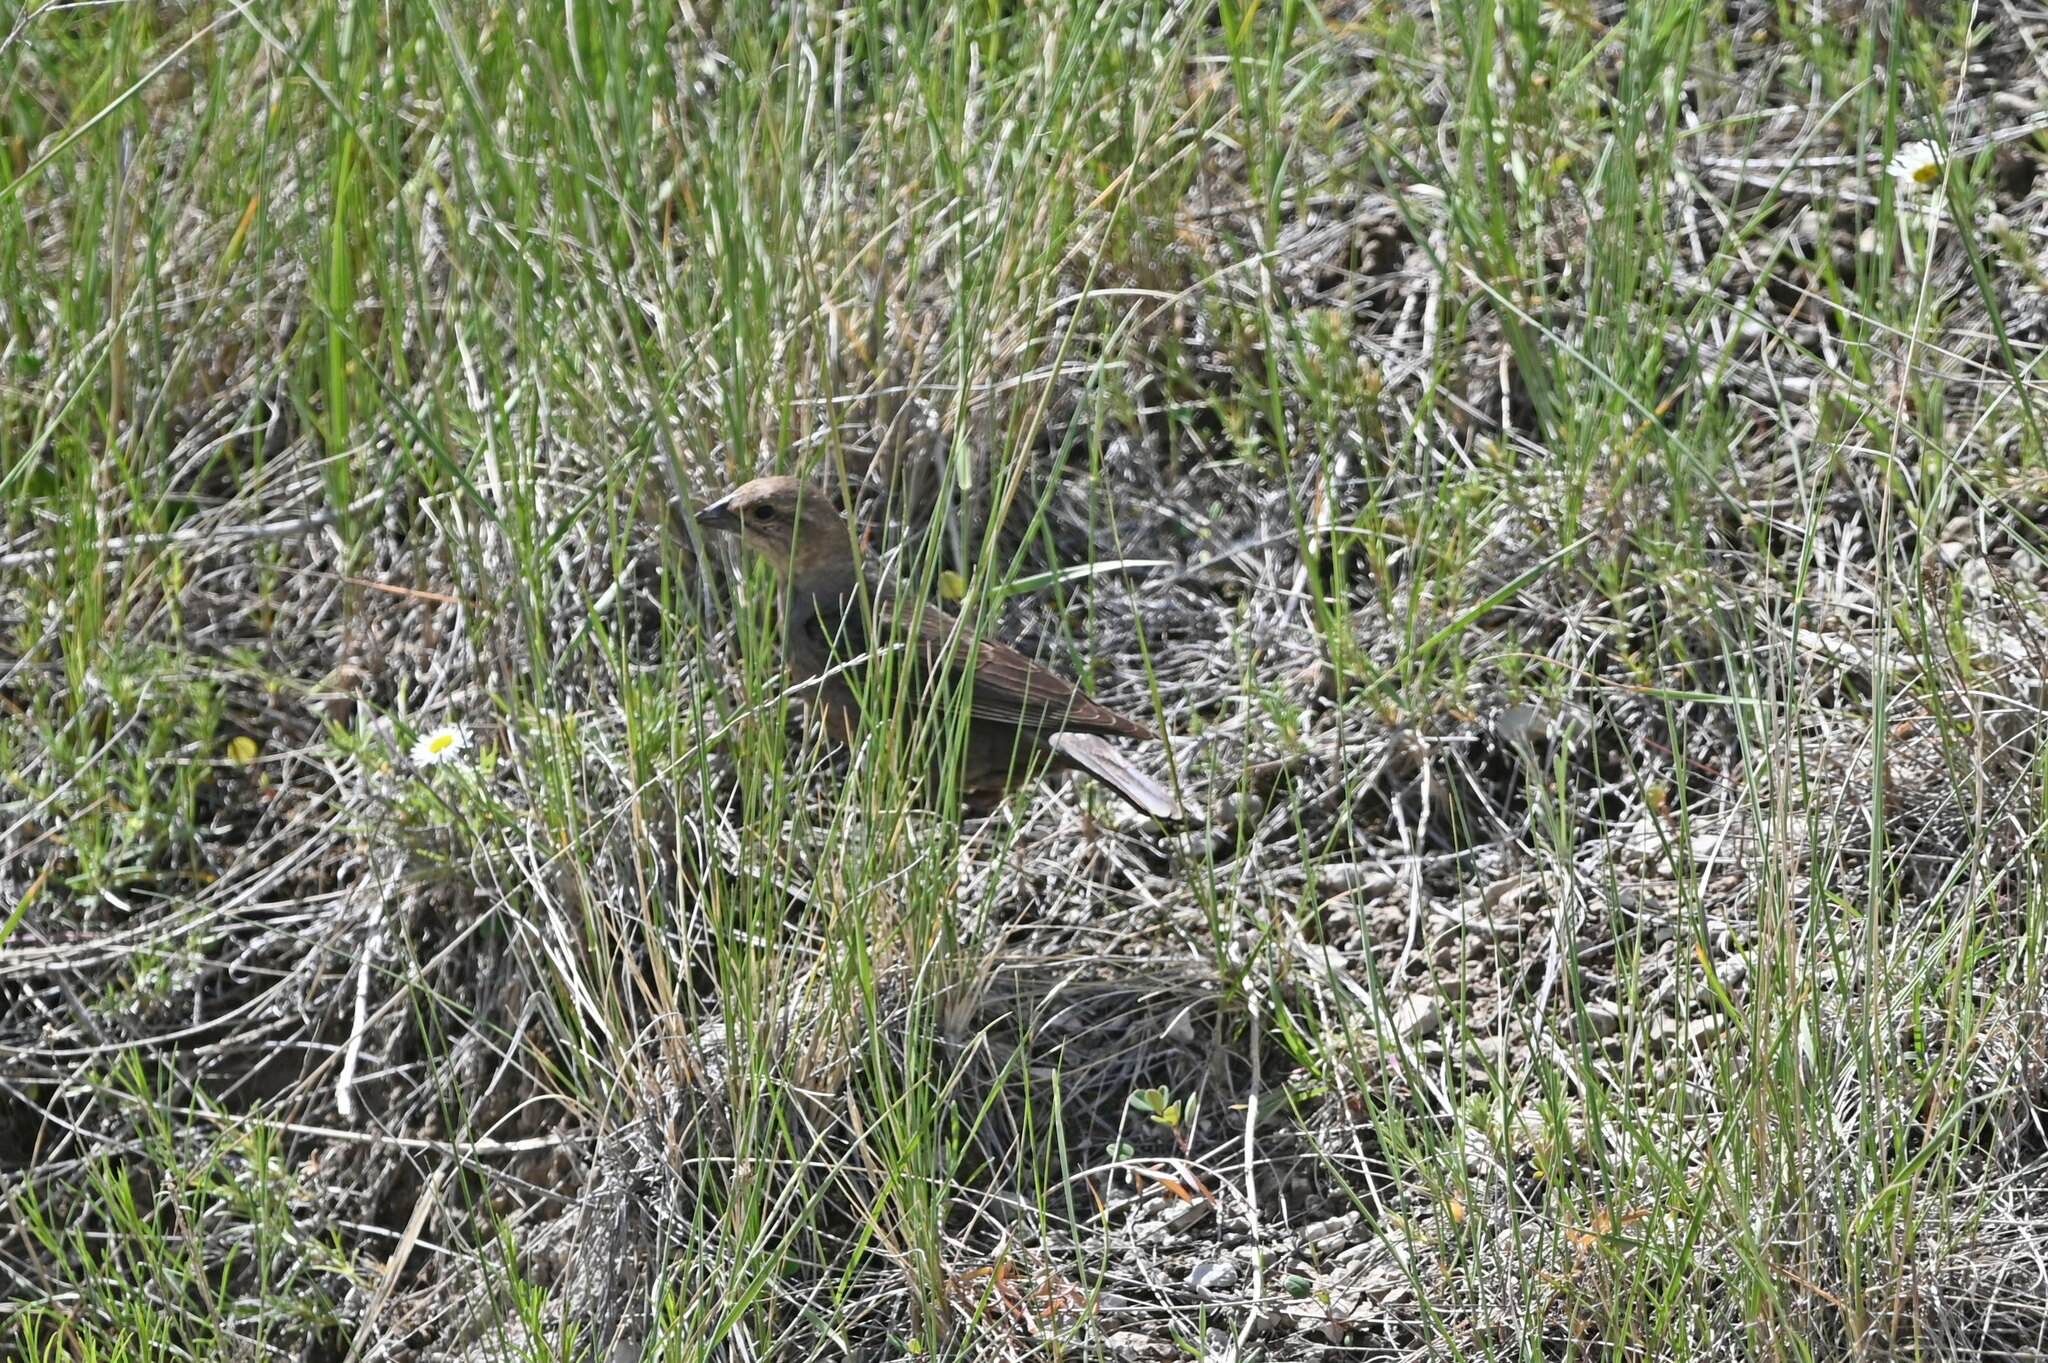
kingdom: Animalia
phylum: Chordata
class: Aves
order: Passeriformes
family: Icteridae
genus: Molothrus
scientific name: Molothrus ater
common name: Brown-headed cowbird
